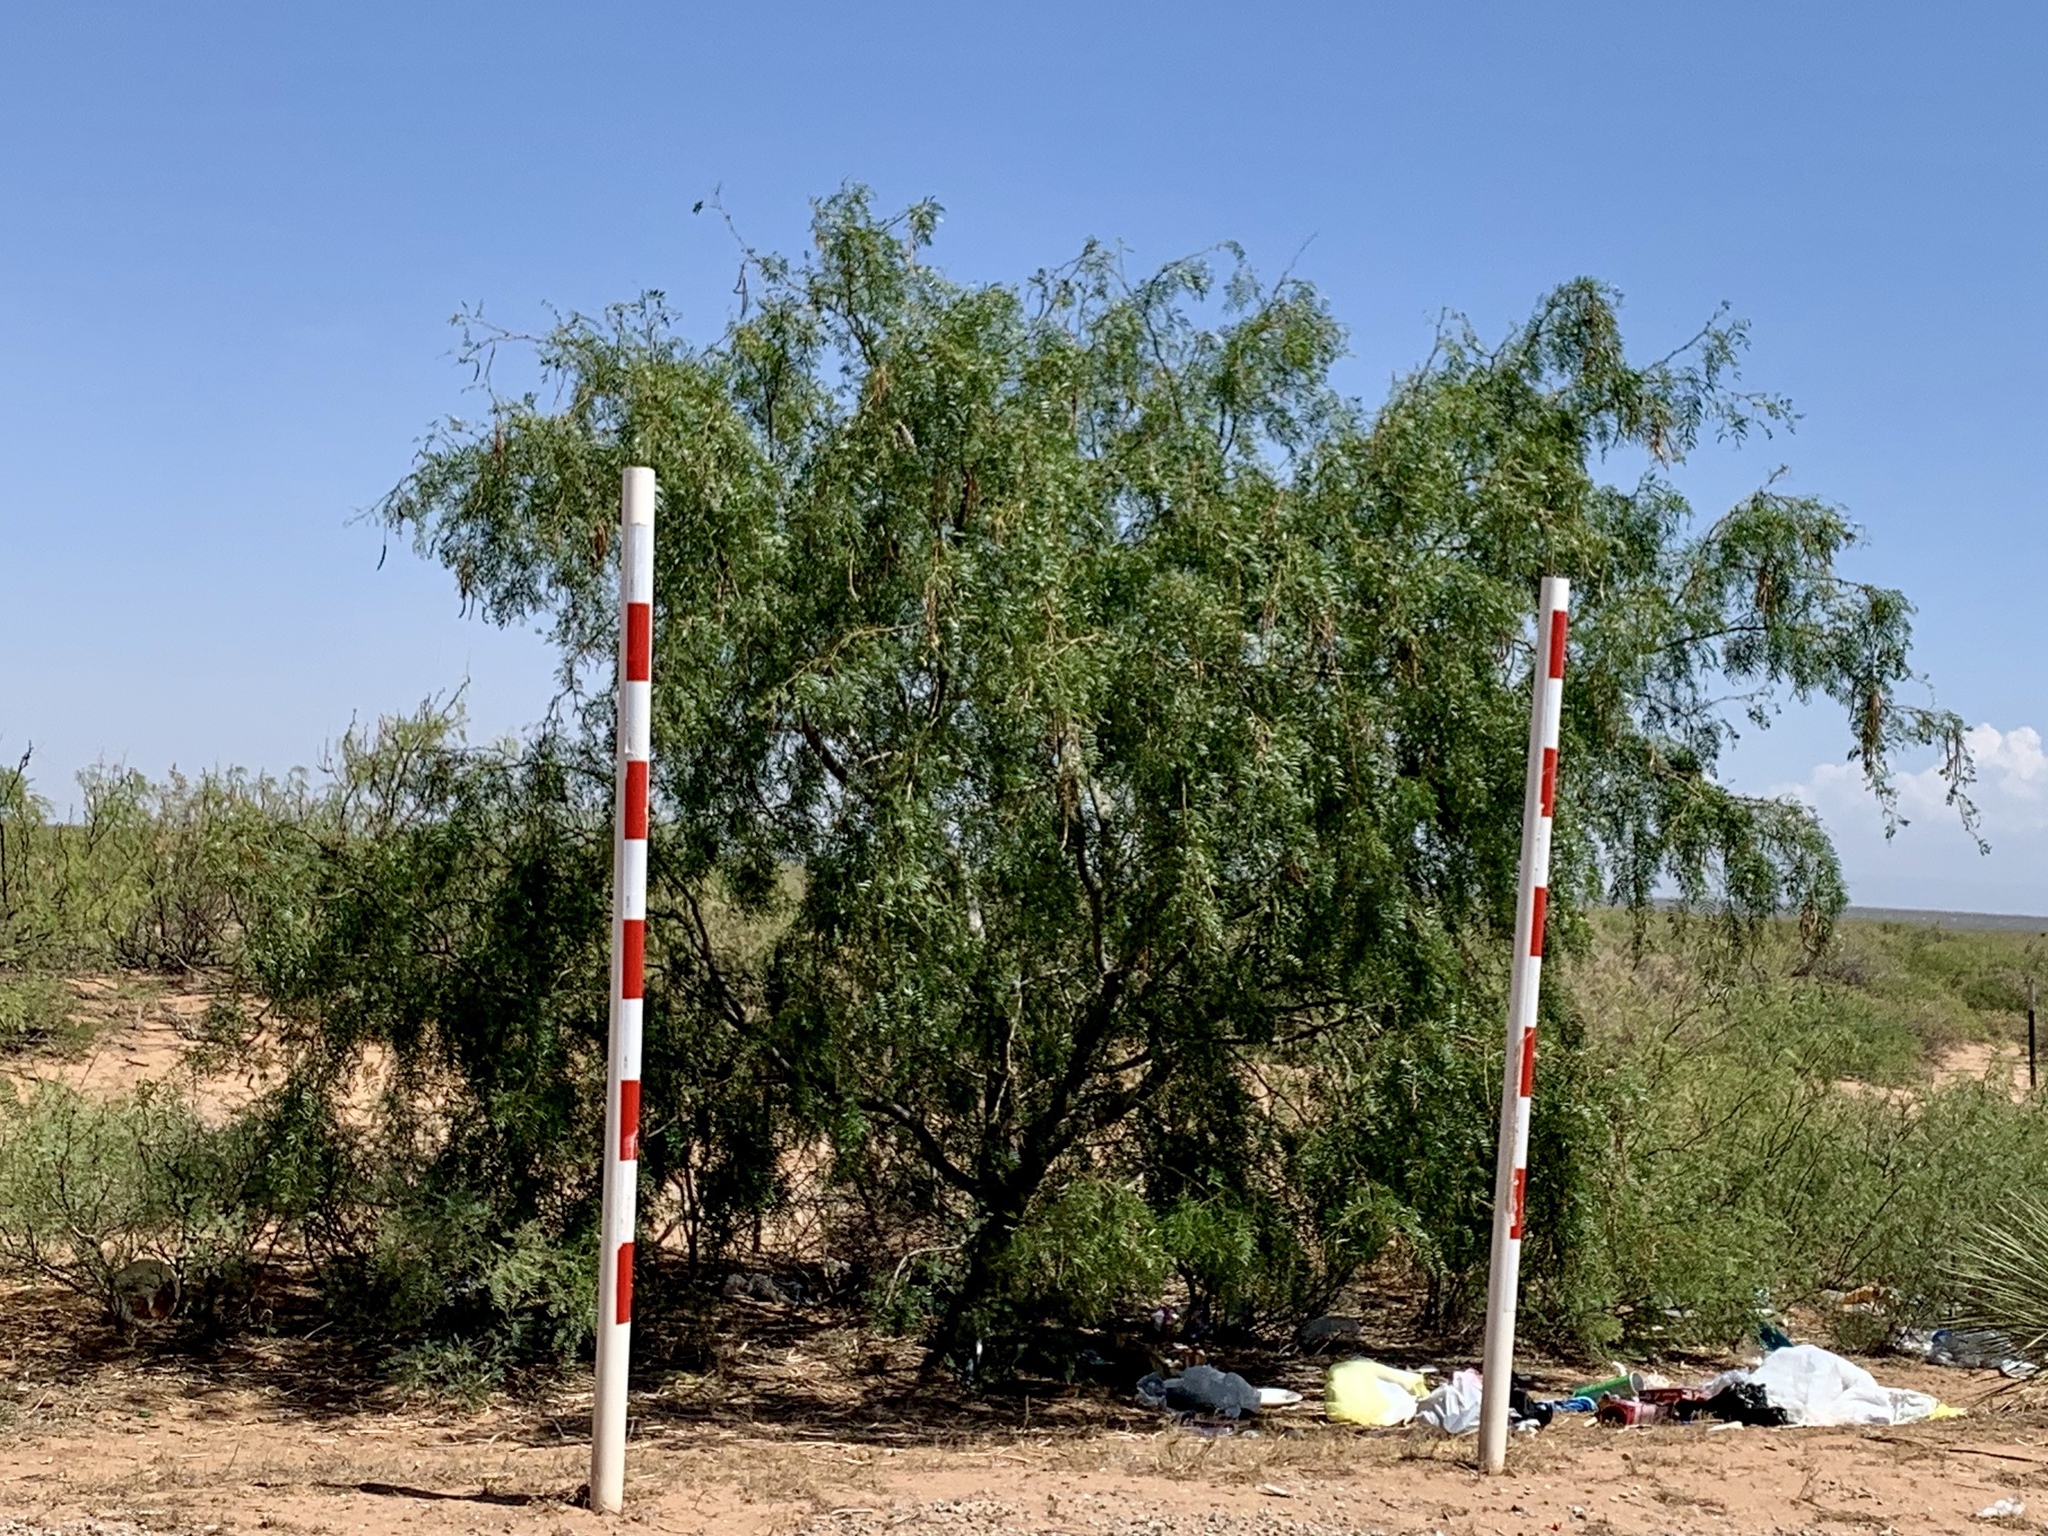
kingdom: Plantae
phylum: Tracheophyta
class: Magnoliopsida
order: Fabales
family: Fabaceae
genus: Prosopis
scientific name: Prosopis glandulosa
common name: Honey mesquite
